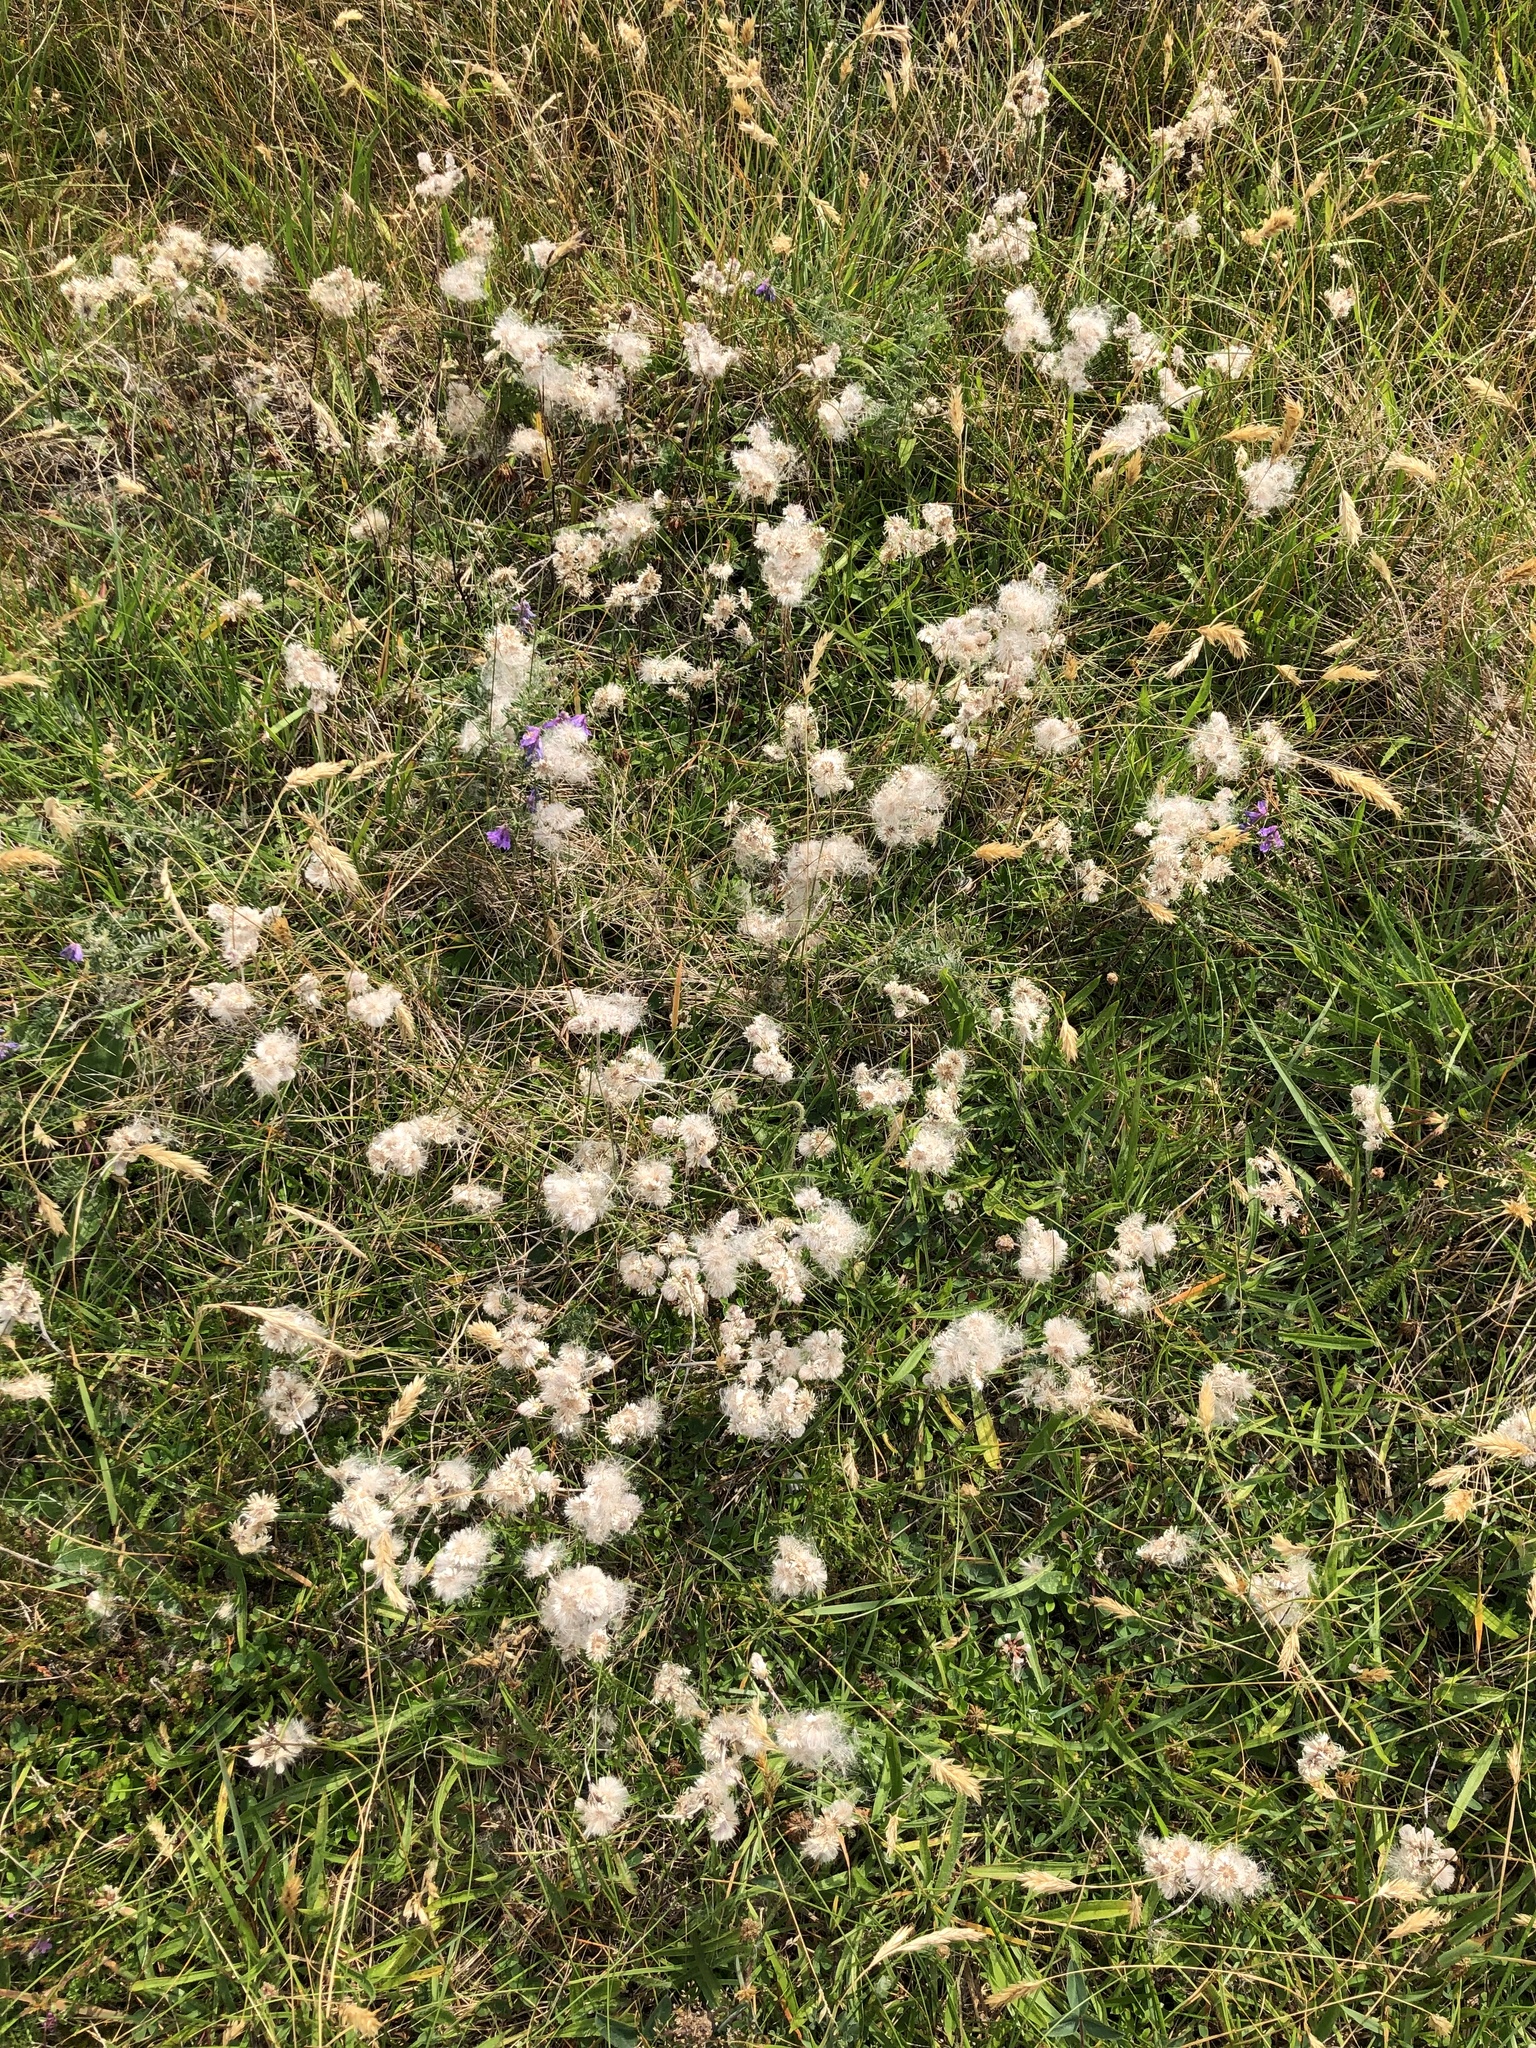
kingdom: Plantae
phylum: Tracheophyta
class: Magnoliopsida
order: Asterales
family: Asteraceae
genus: Antennaria
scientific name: Antennaria dioica
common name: Mountain everlasting
